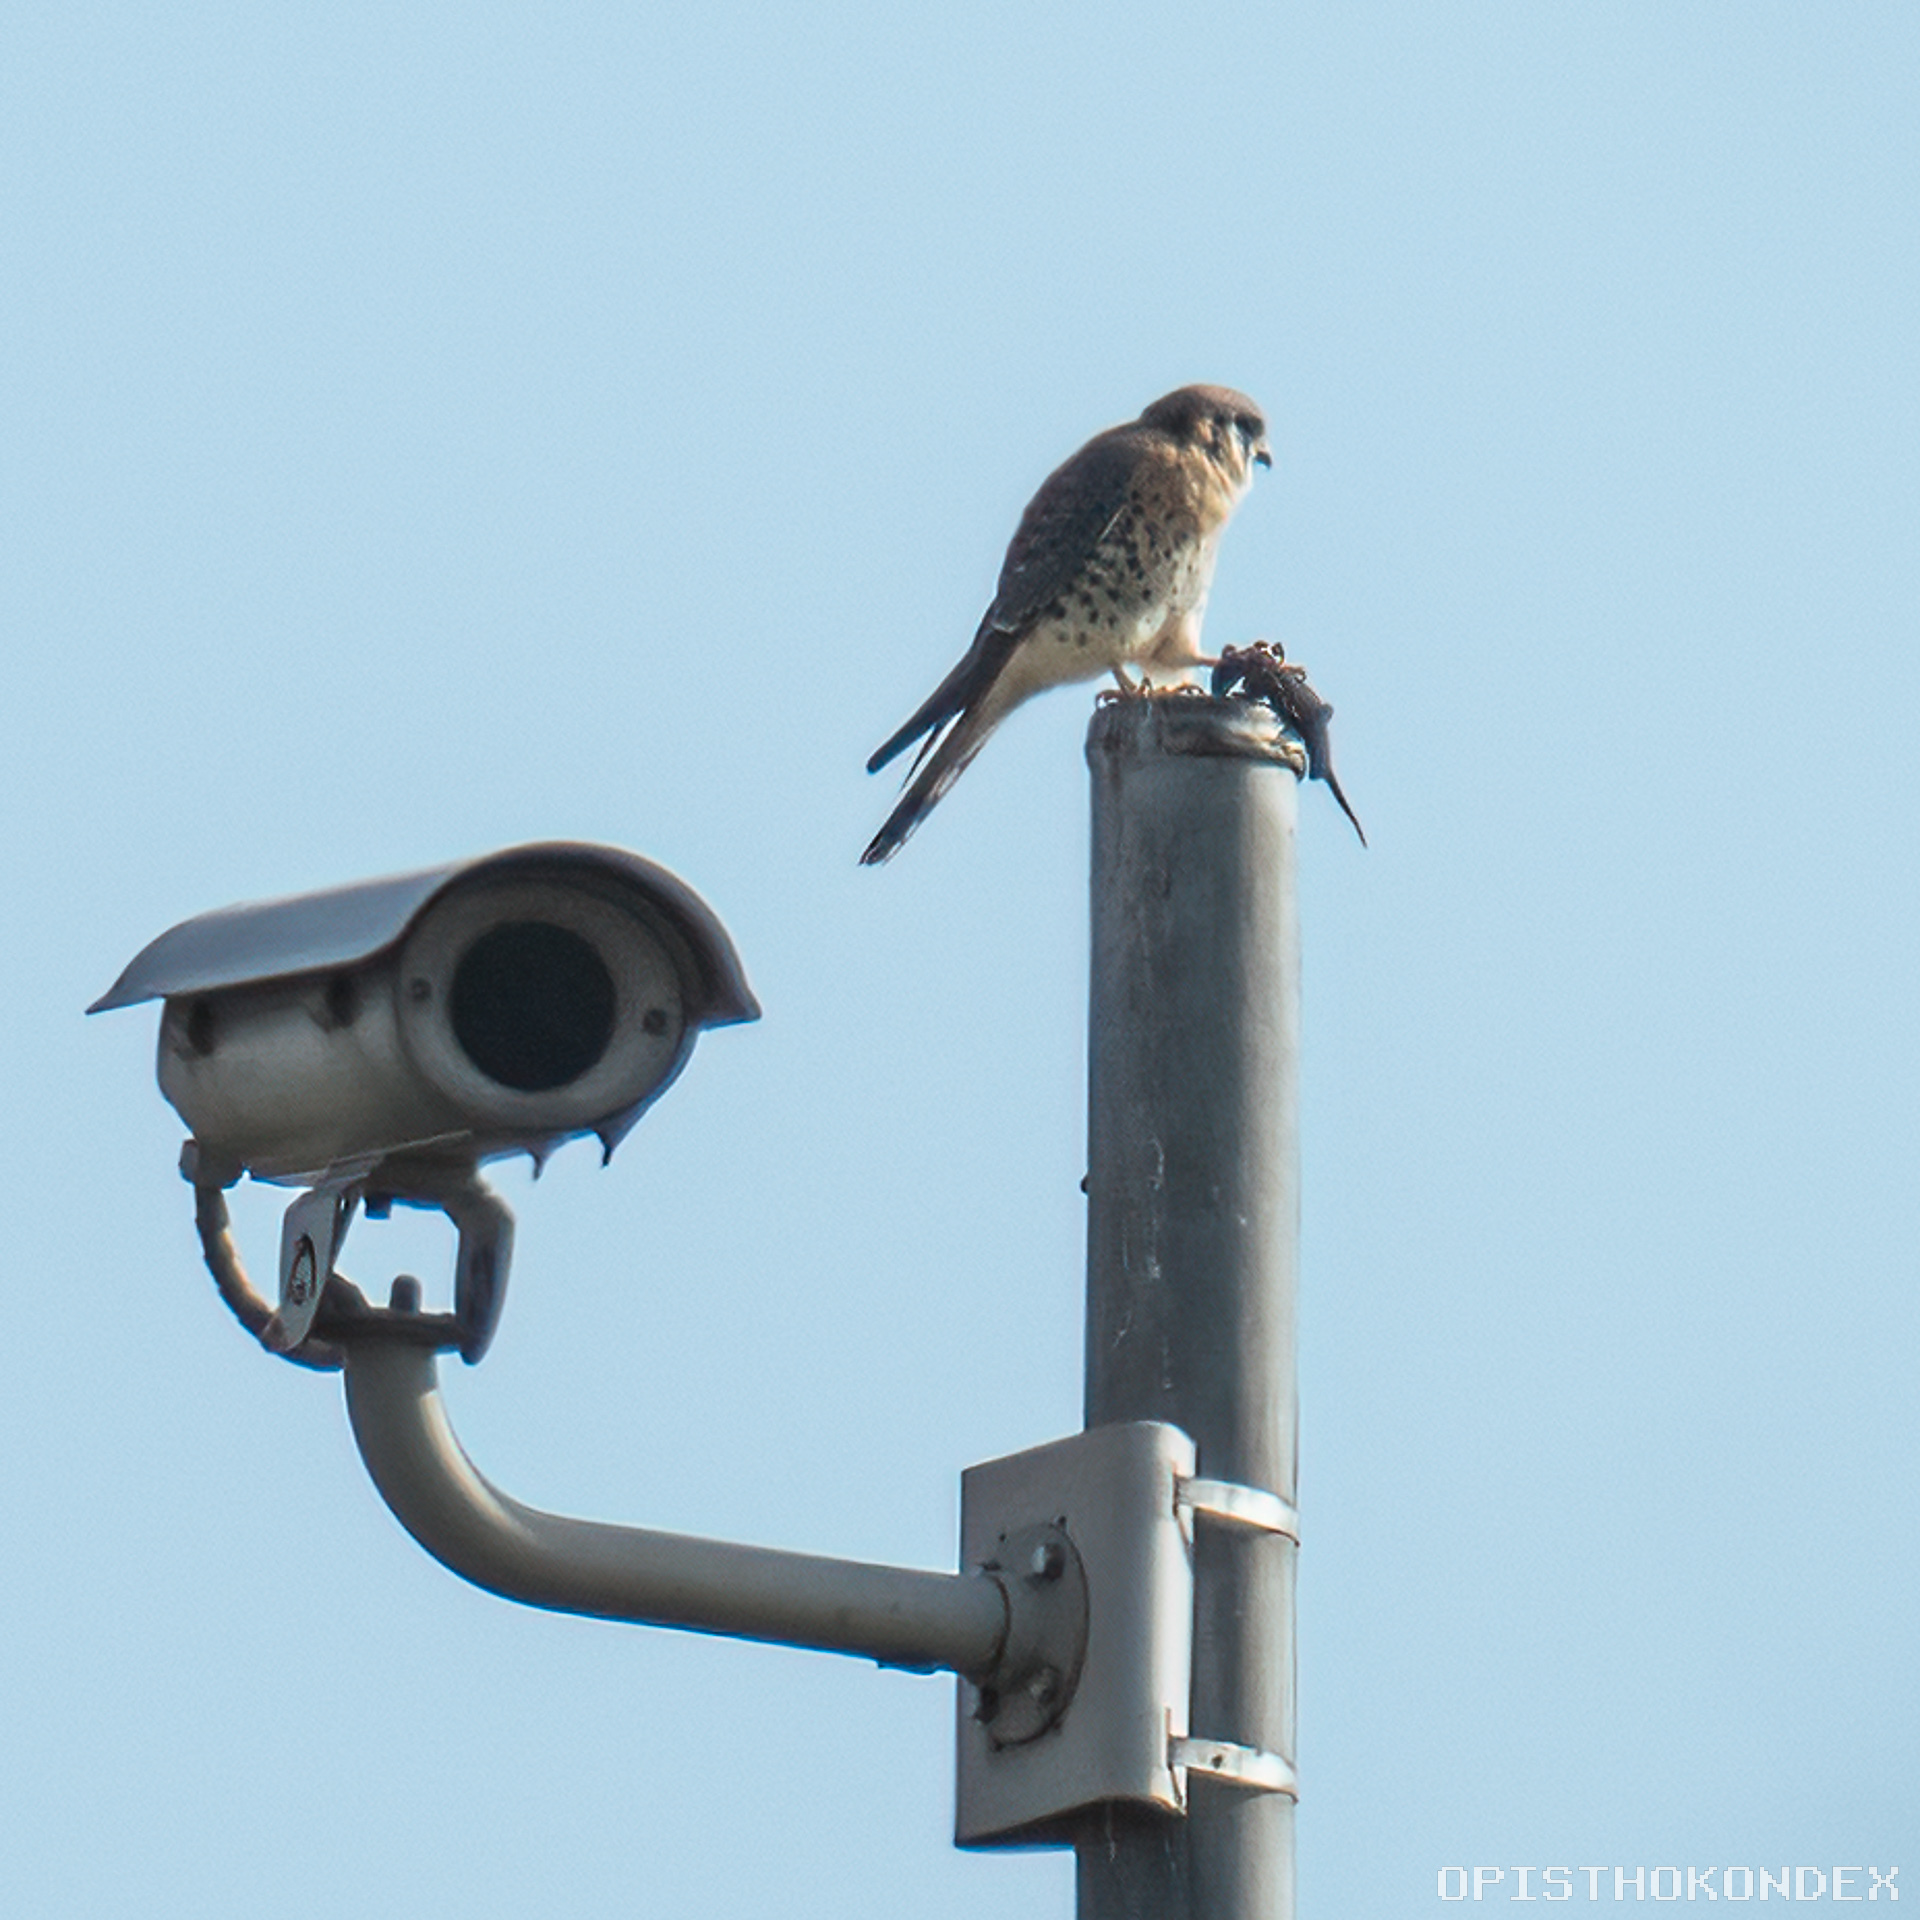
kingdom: Animalia
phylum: Chordata
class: Aves
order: Falconiformes
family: Falconidae
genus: Falco
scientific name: Falco sparverius
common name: American kestrel
